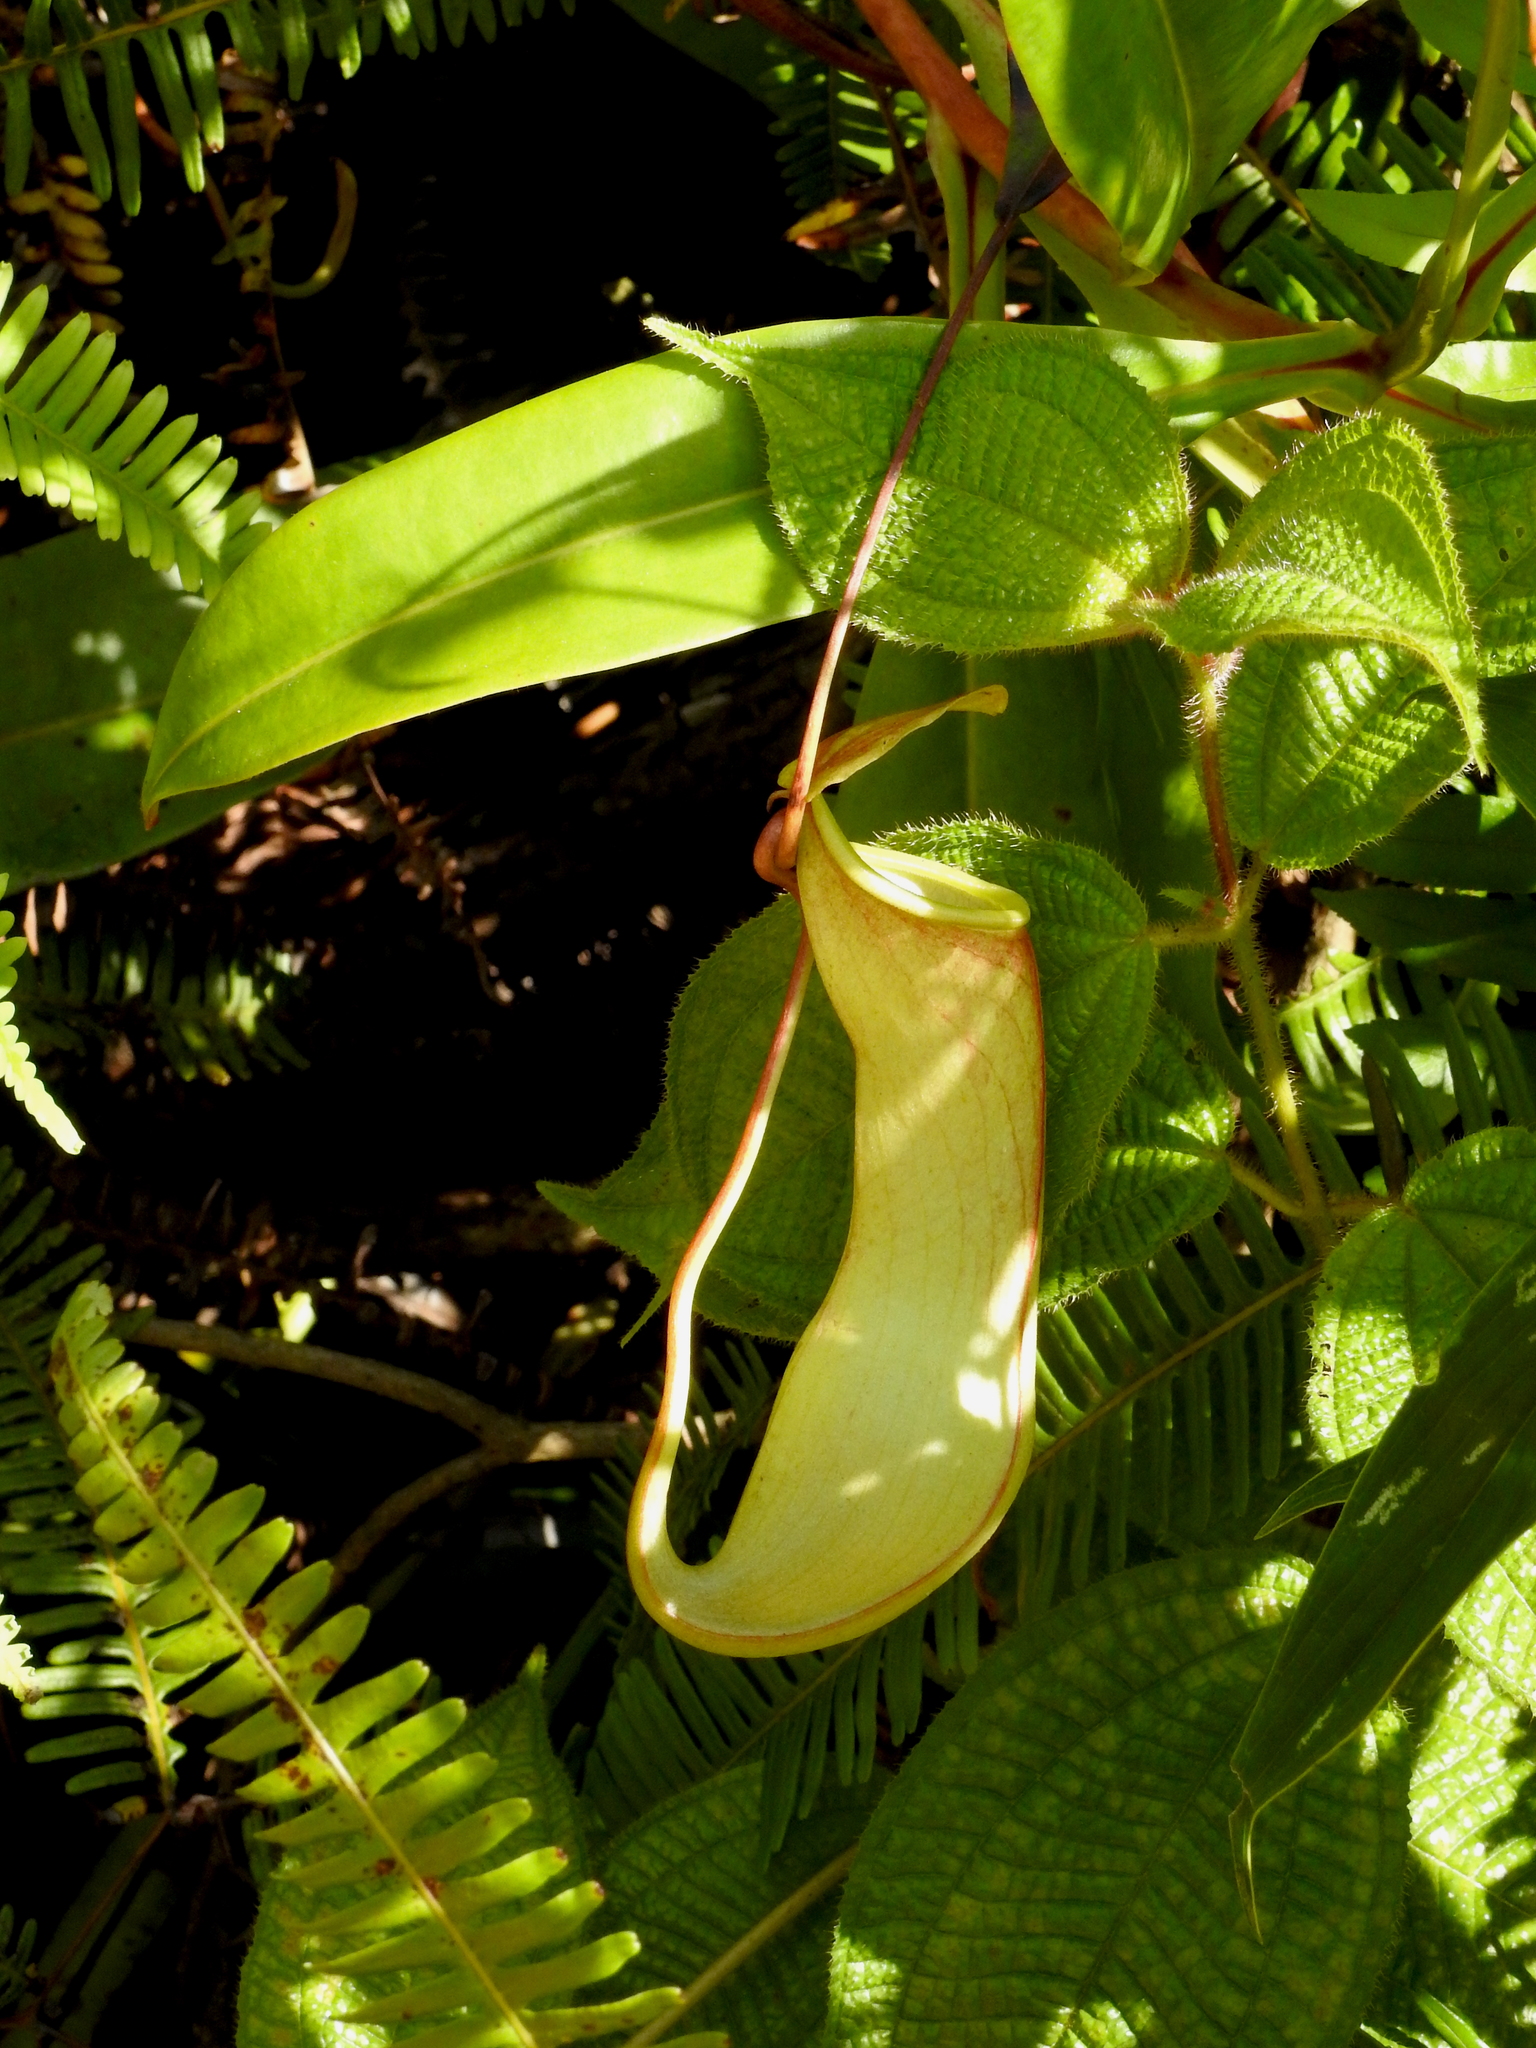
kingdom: Plantae
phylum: Tracheophyta
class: Magnoliopsida
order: Caryophyllales
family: Nepenthaceae
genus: Nepenthes
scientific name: Nepenthes distillatoria
